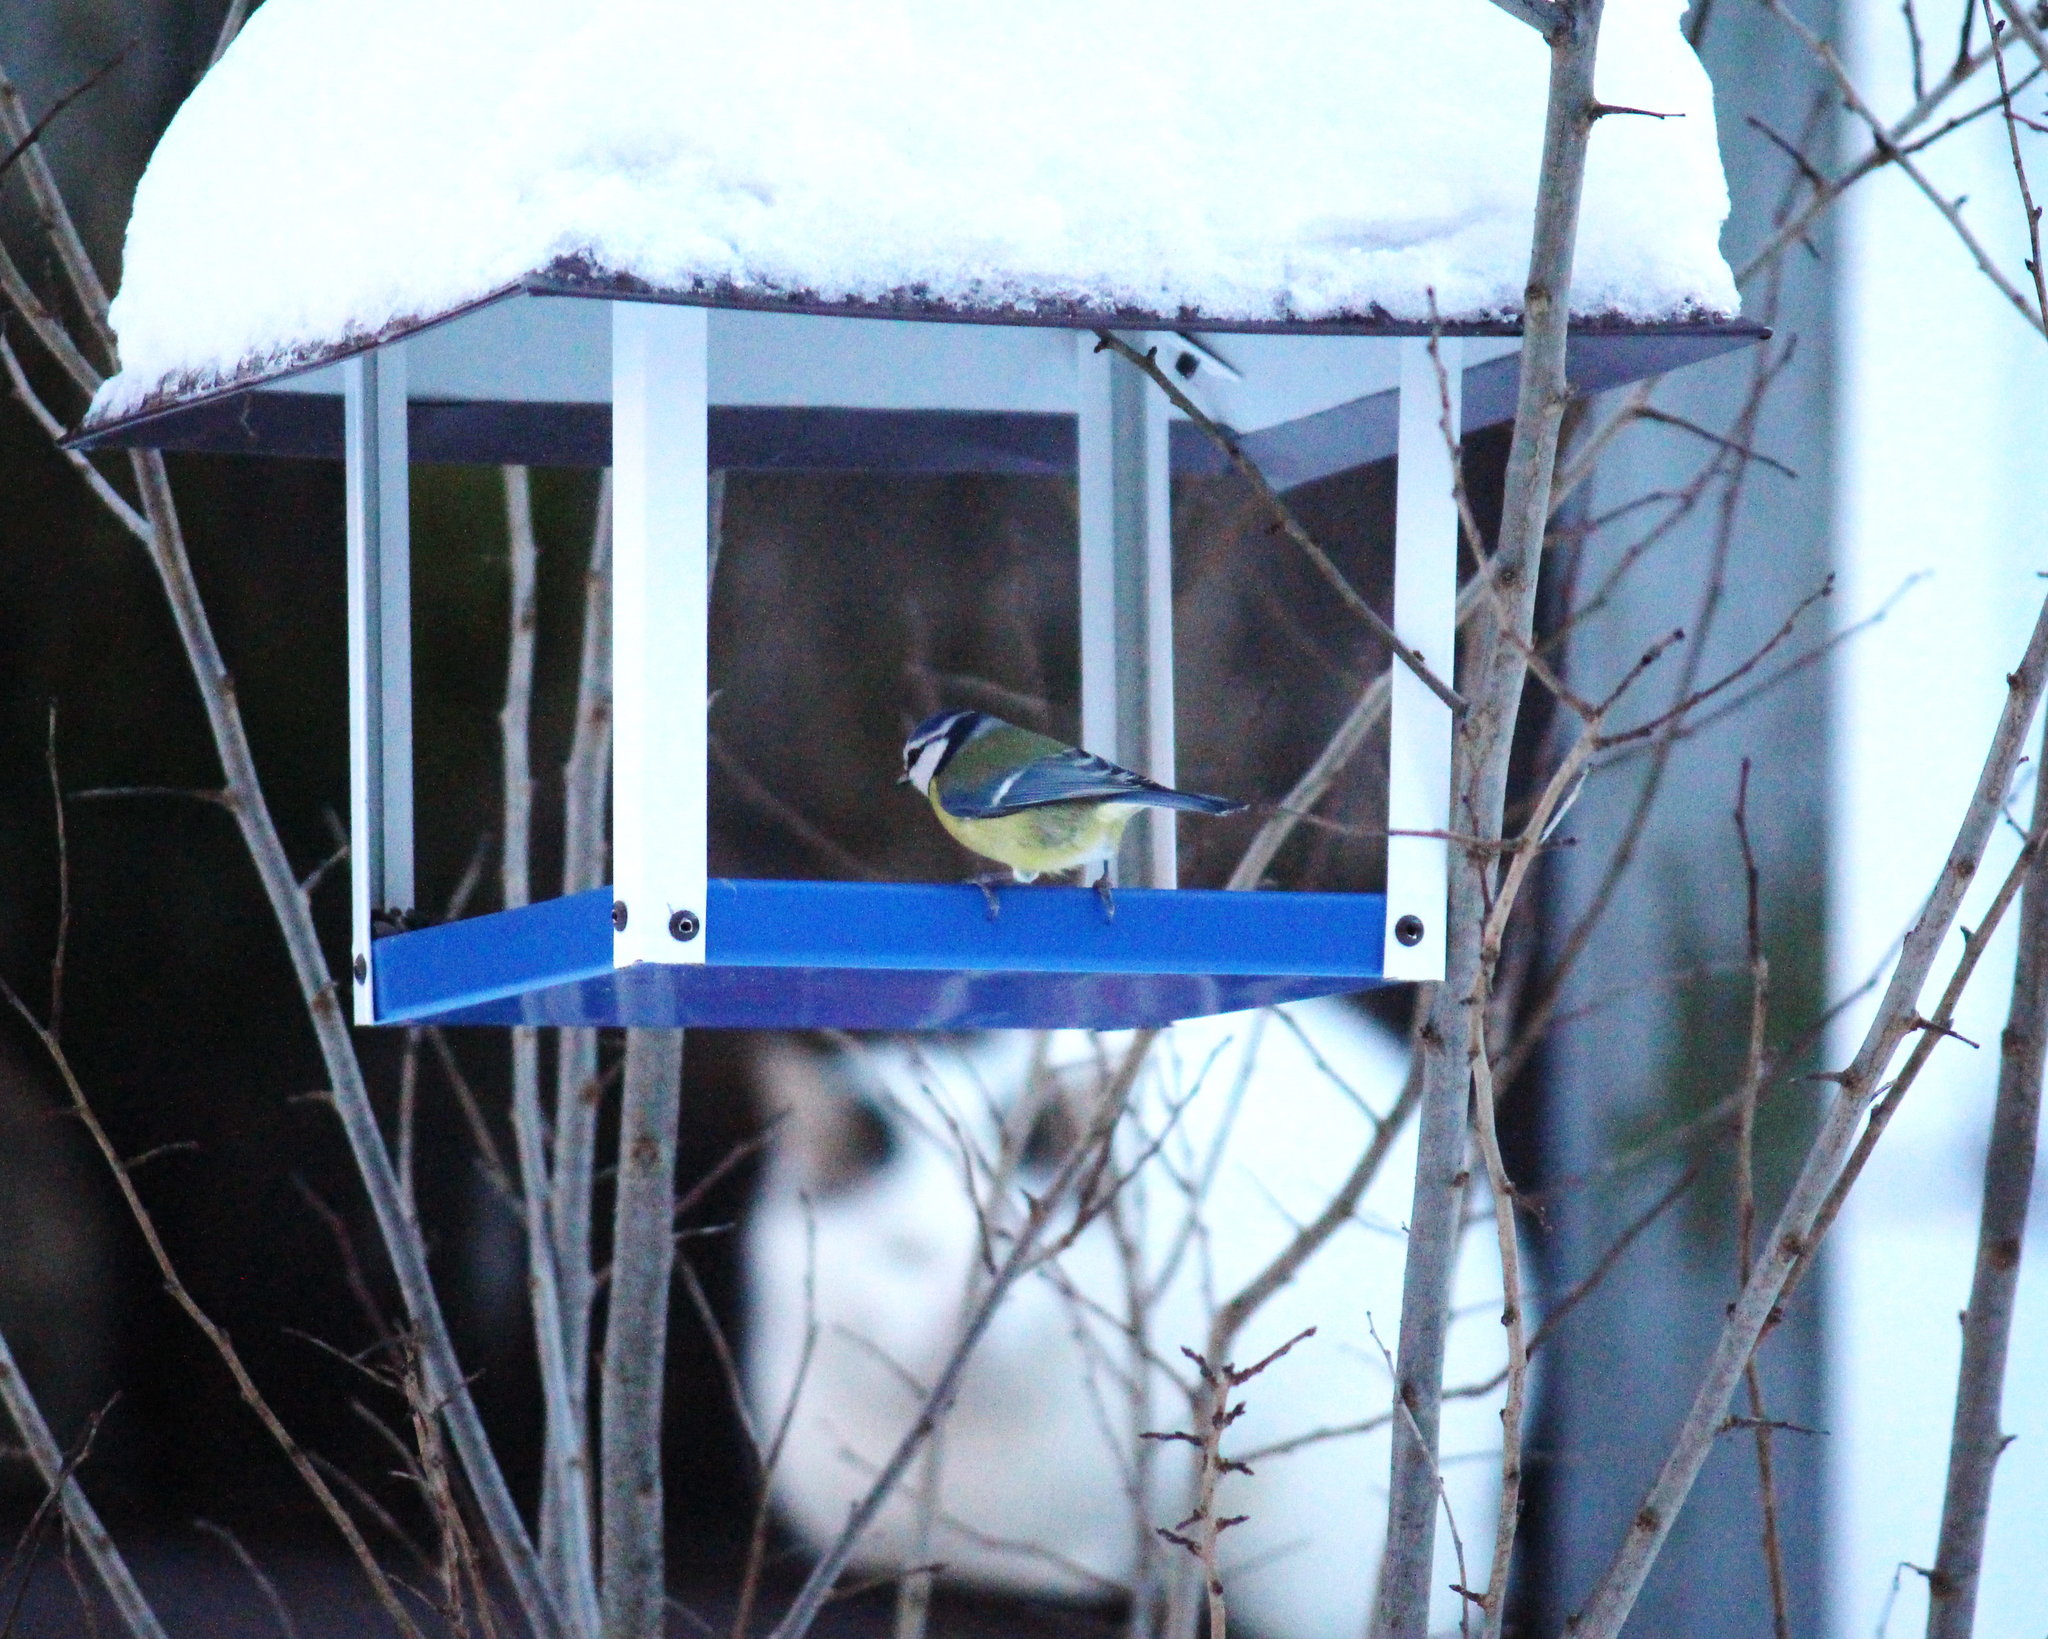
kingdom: Animalia
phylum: Chordata
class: Aves
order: Passeriformes
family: Paridae
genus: Cyanistes
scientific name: Cyanistes caeruleus
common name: Eurasian blue tit
